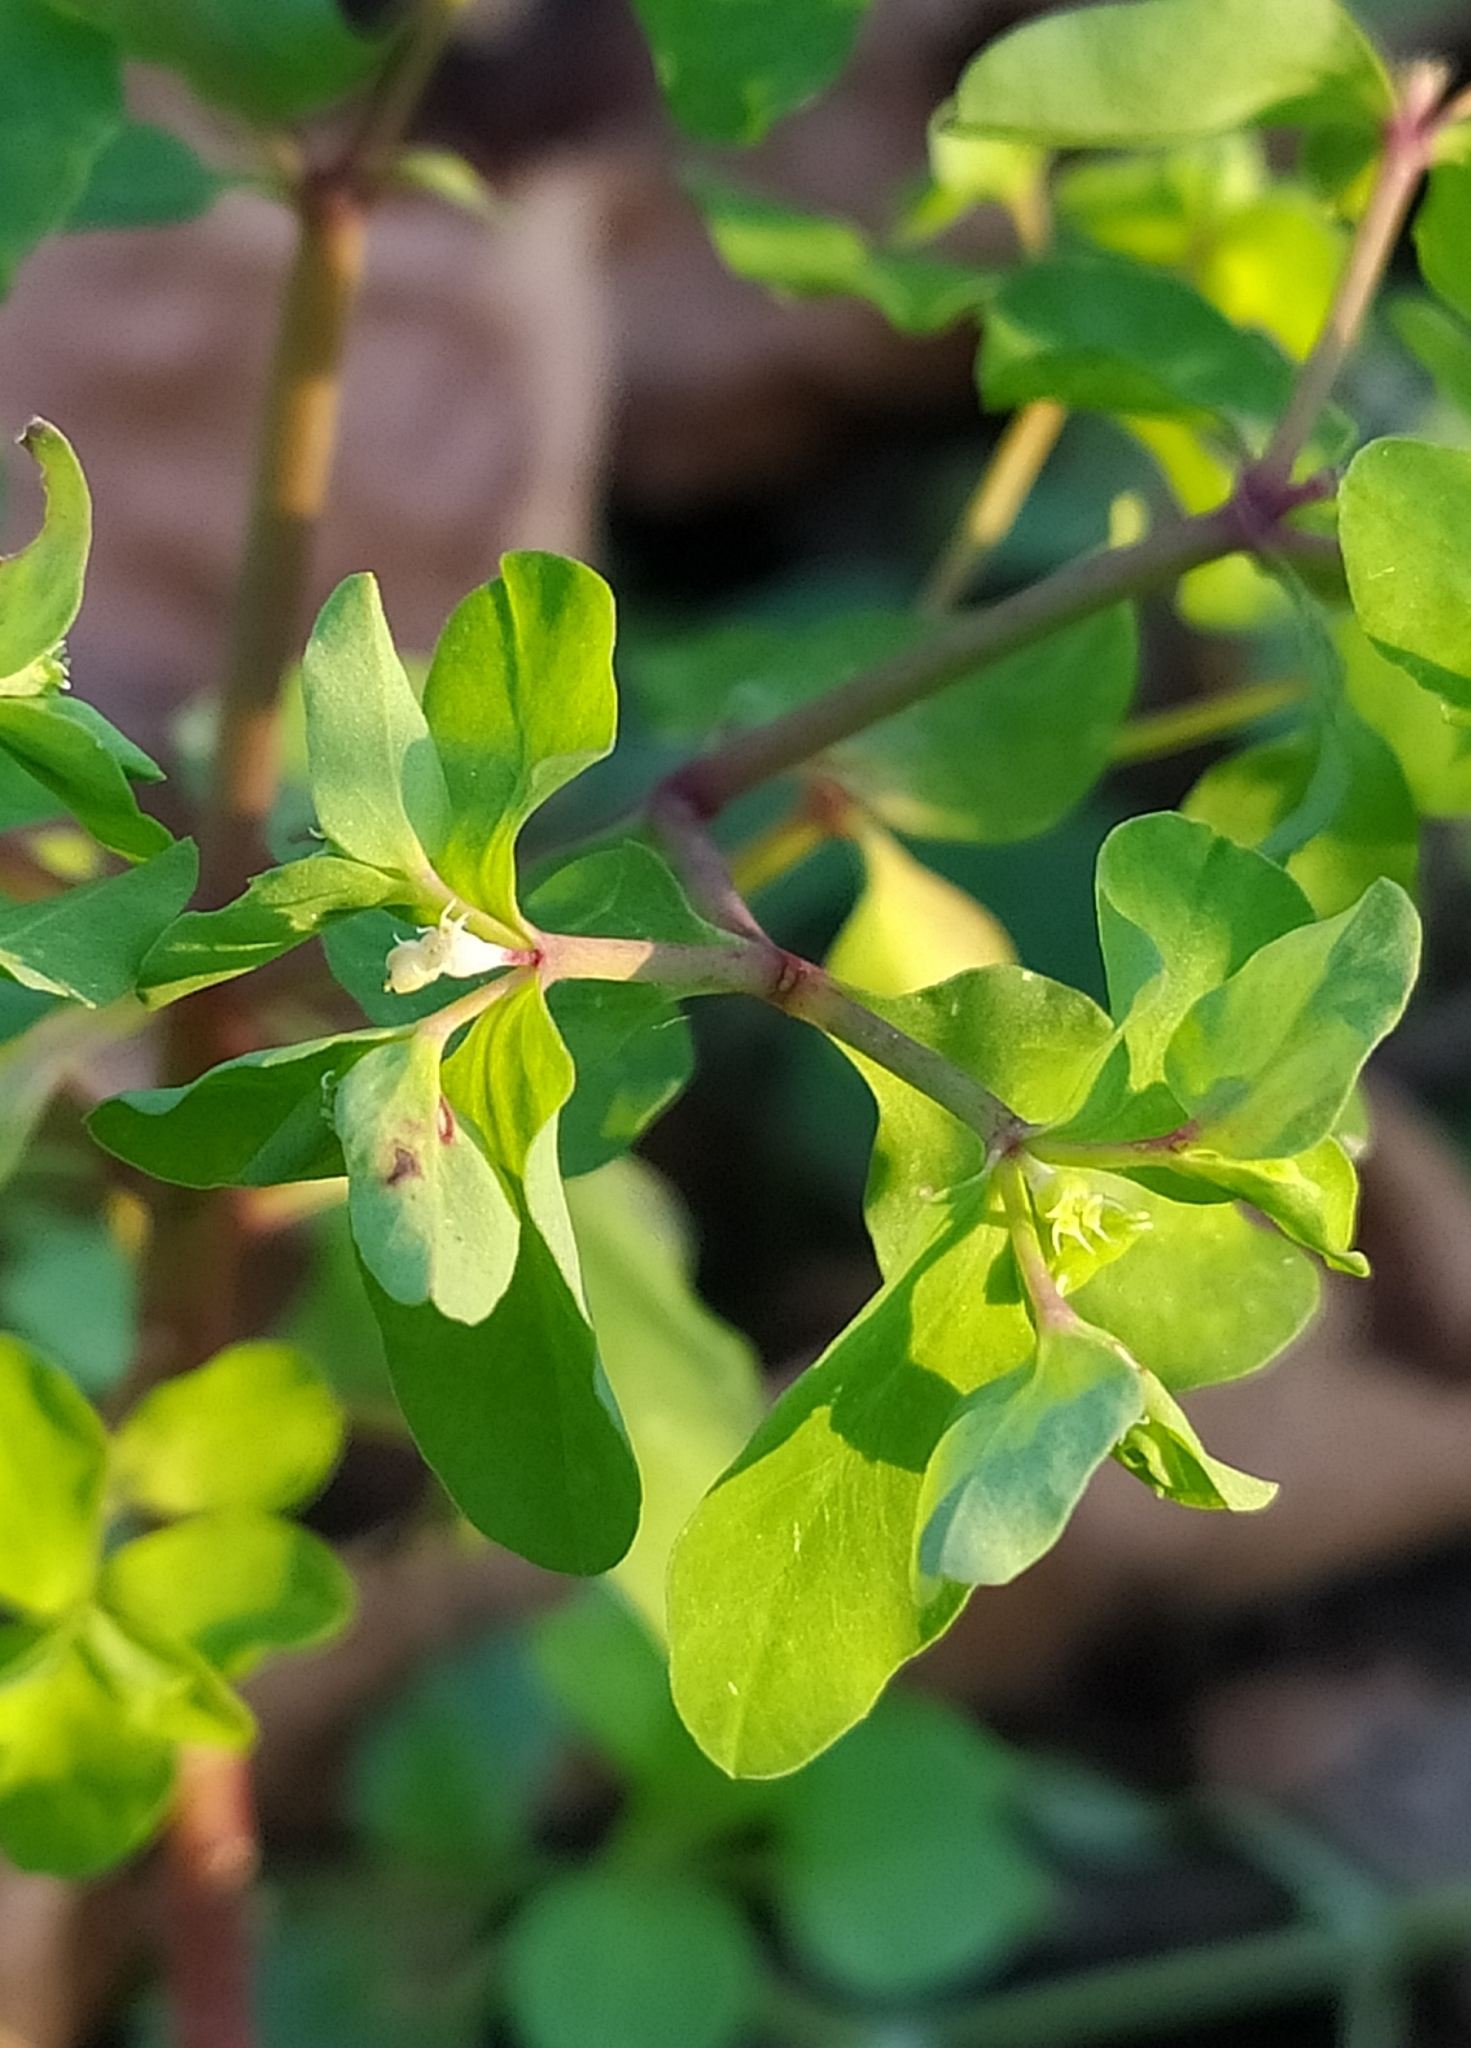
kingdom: Plantae
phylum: Tracheophyta
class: Magnoliopsida
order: Malpighiales
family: Euphorbiaceae
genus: Euphorbia
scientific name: Euphorbia peplus
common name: Petty spurge
